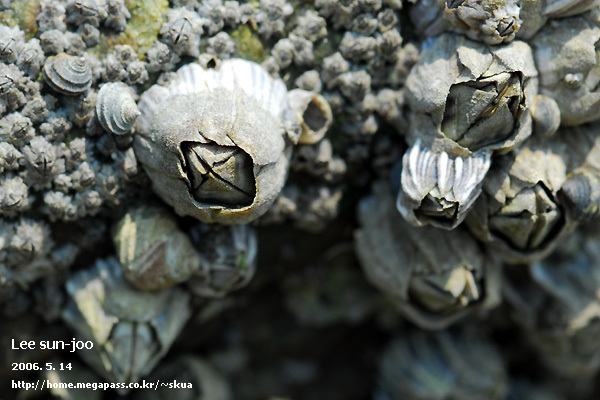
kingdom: Animalia
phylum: Arthropoda
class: Maxillopoda
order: Sessilia
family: Balanidae
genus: Fistulobalanus
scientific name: Fistulobalanus albicostatus
